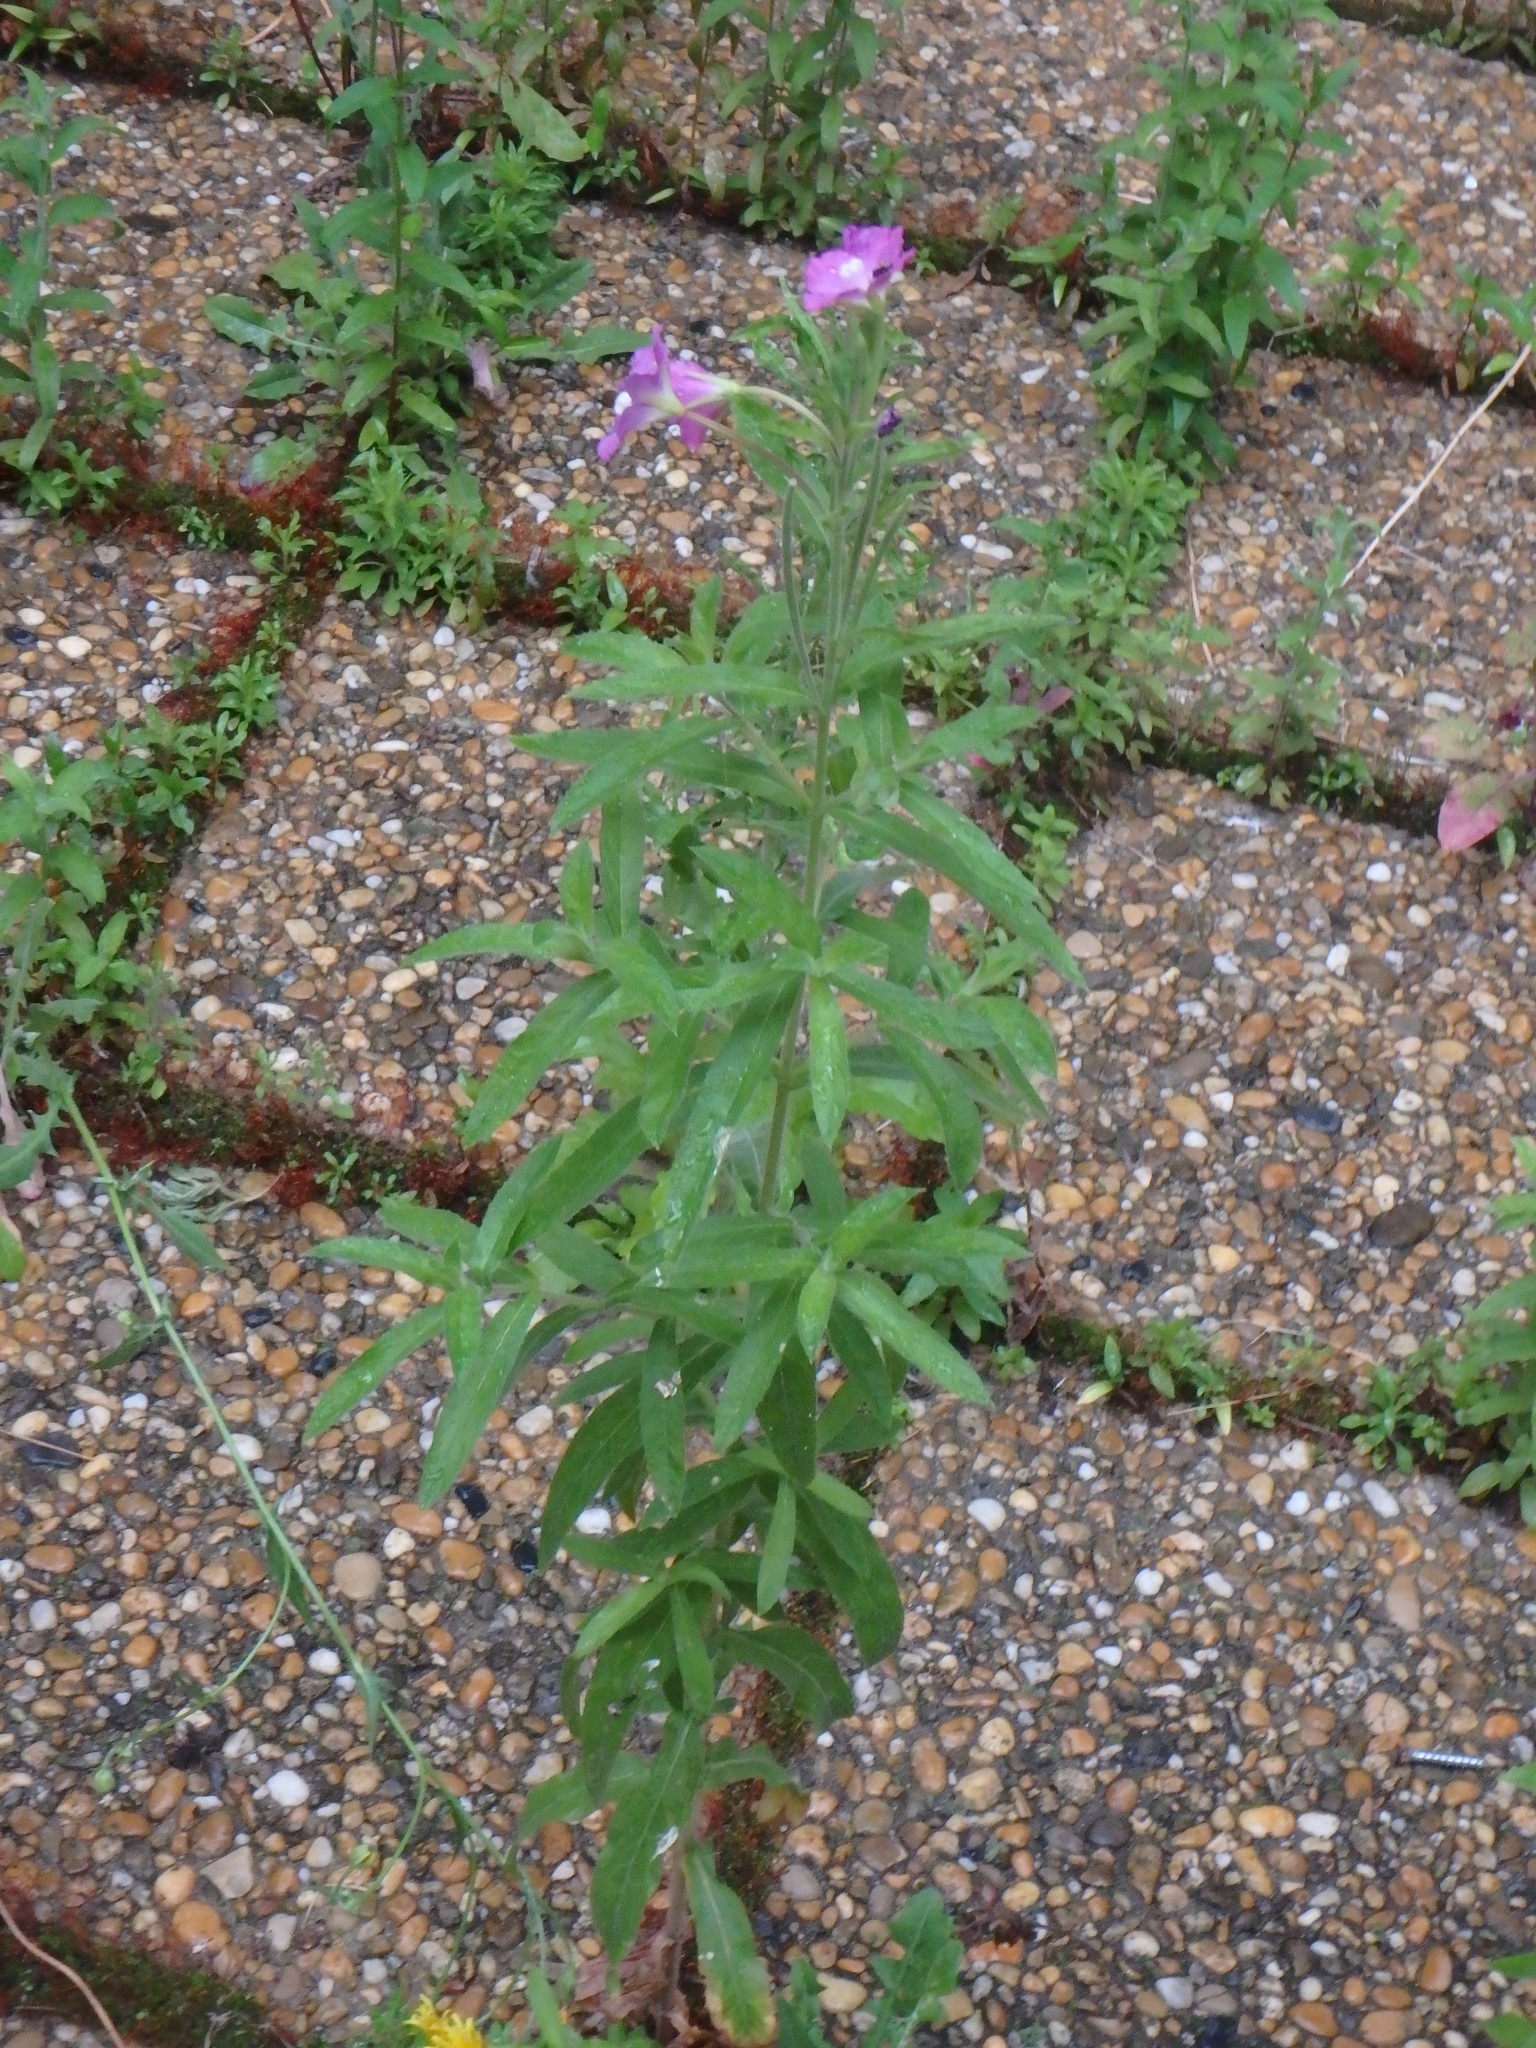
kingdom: Plantae
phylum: Tracheophyta
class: Magnoliopsida
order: Myrtales
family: Onagraceae
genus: Epilobium
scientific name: Epilobium hirsutum
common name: Great willowherb
